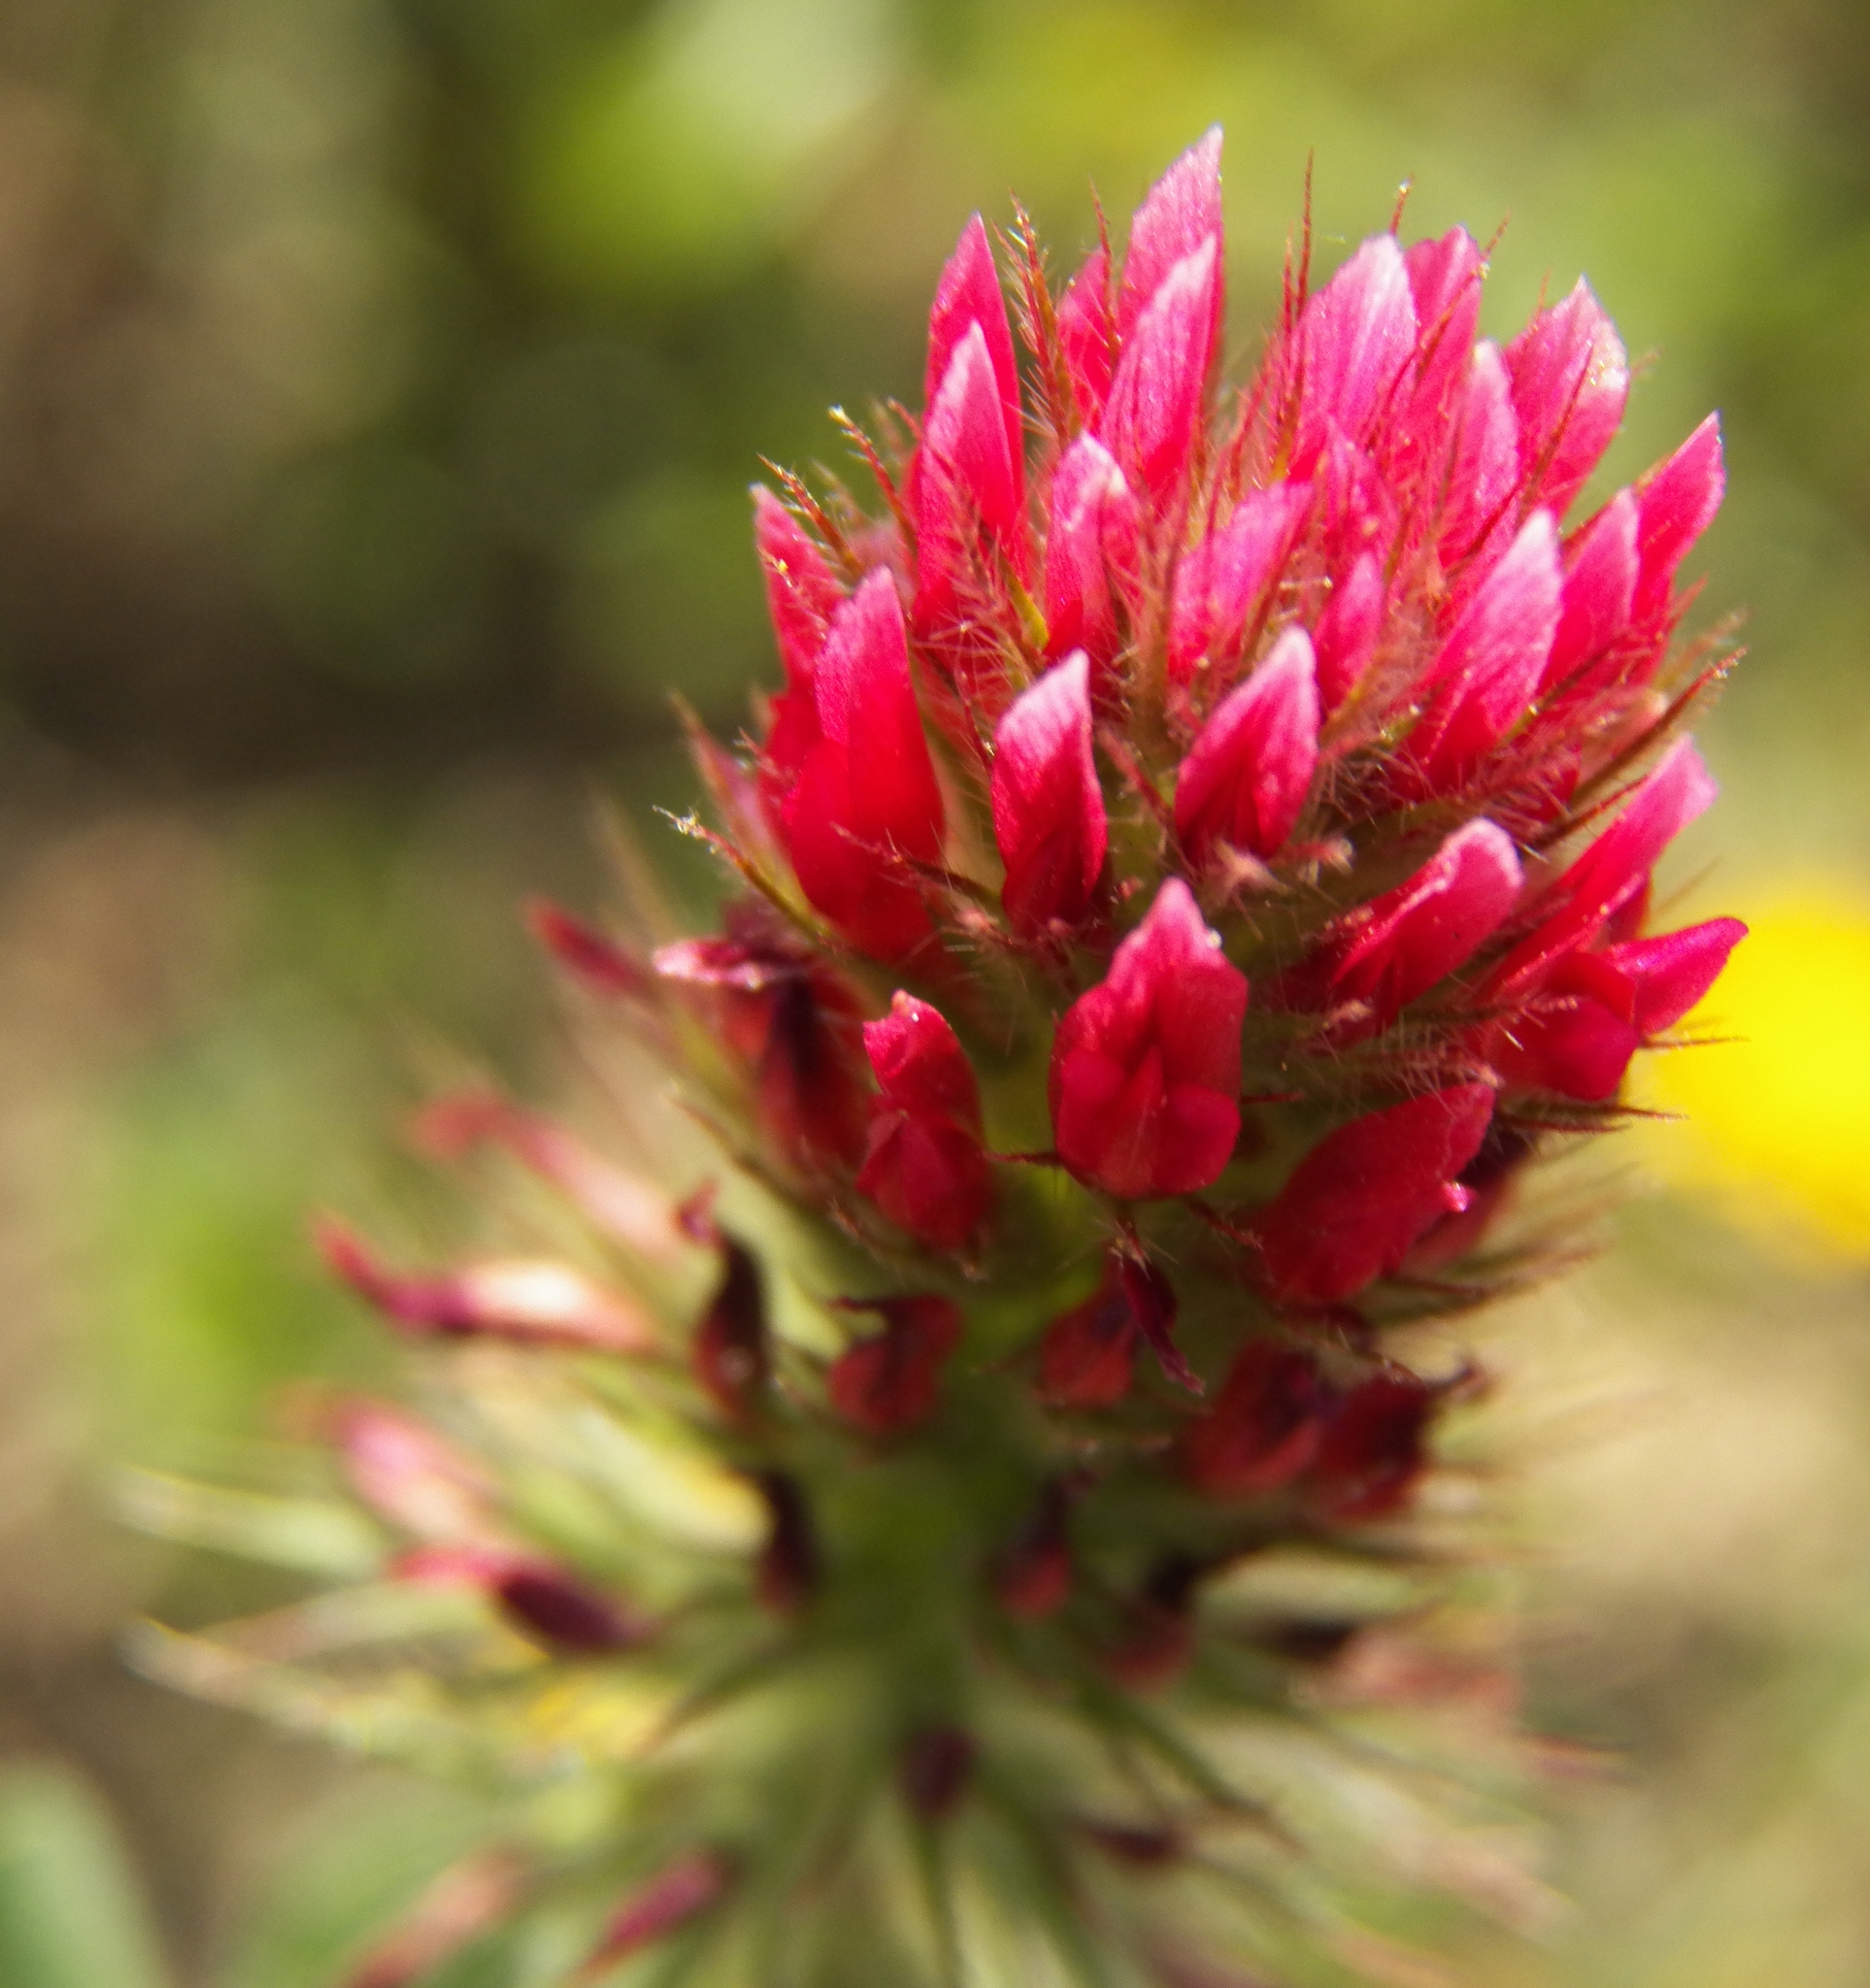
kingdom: Plantae
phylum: Tracheophyta
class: Magnoliopsida
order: Fabales
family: Fabaceae
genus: Trifolium
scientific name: Trifolium incarnatum
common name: Crimson clover
